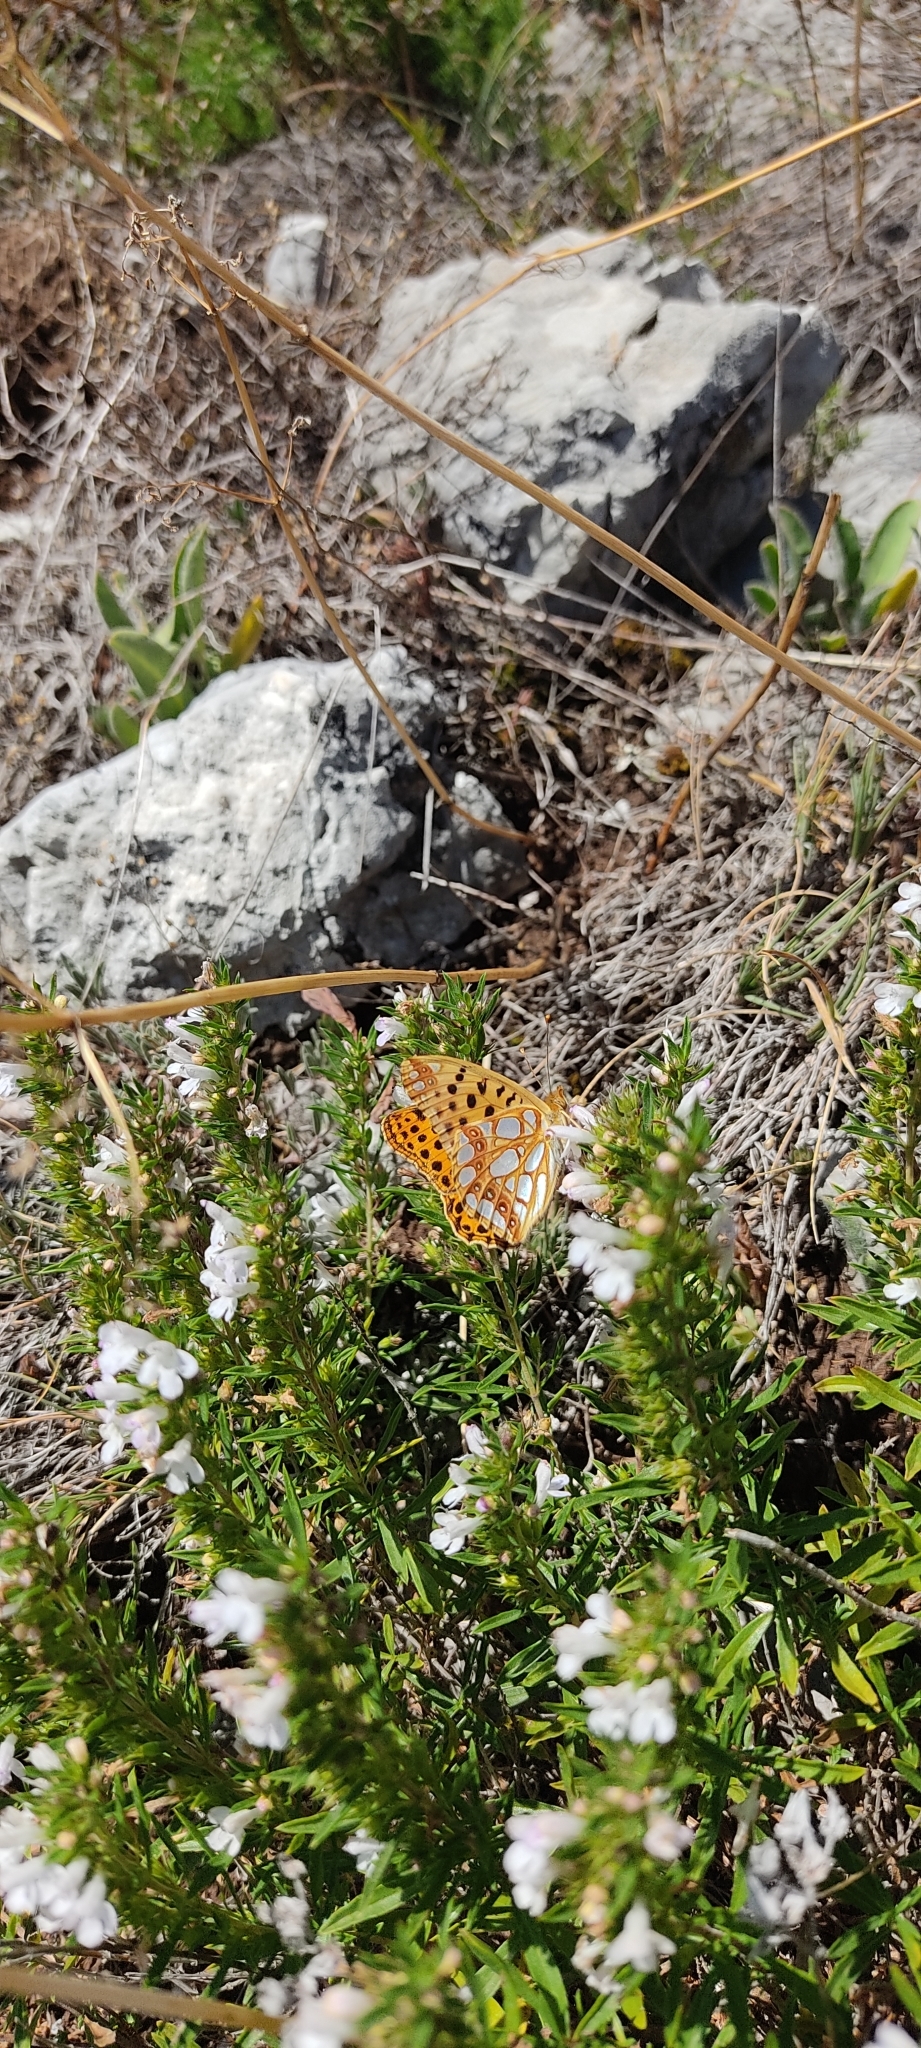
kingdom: Animalia
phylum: Arthropoda
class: Insecta
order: Lepidoptera
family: Nymphalidae
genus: Issoria
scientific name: Issoria lathonia
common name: Queen of spain fritillary
